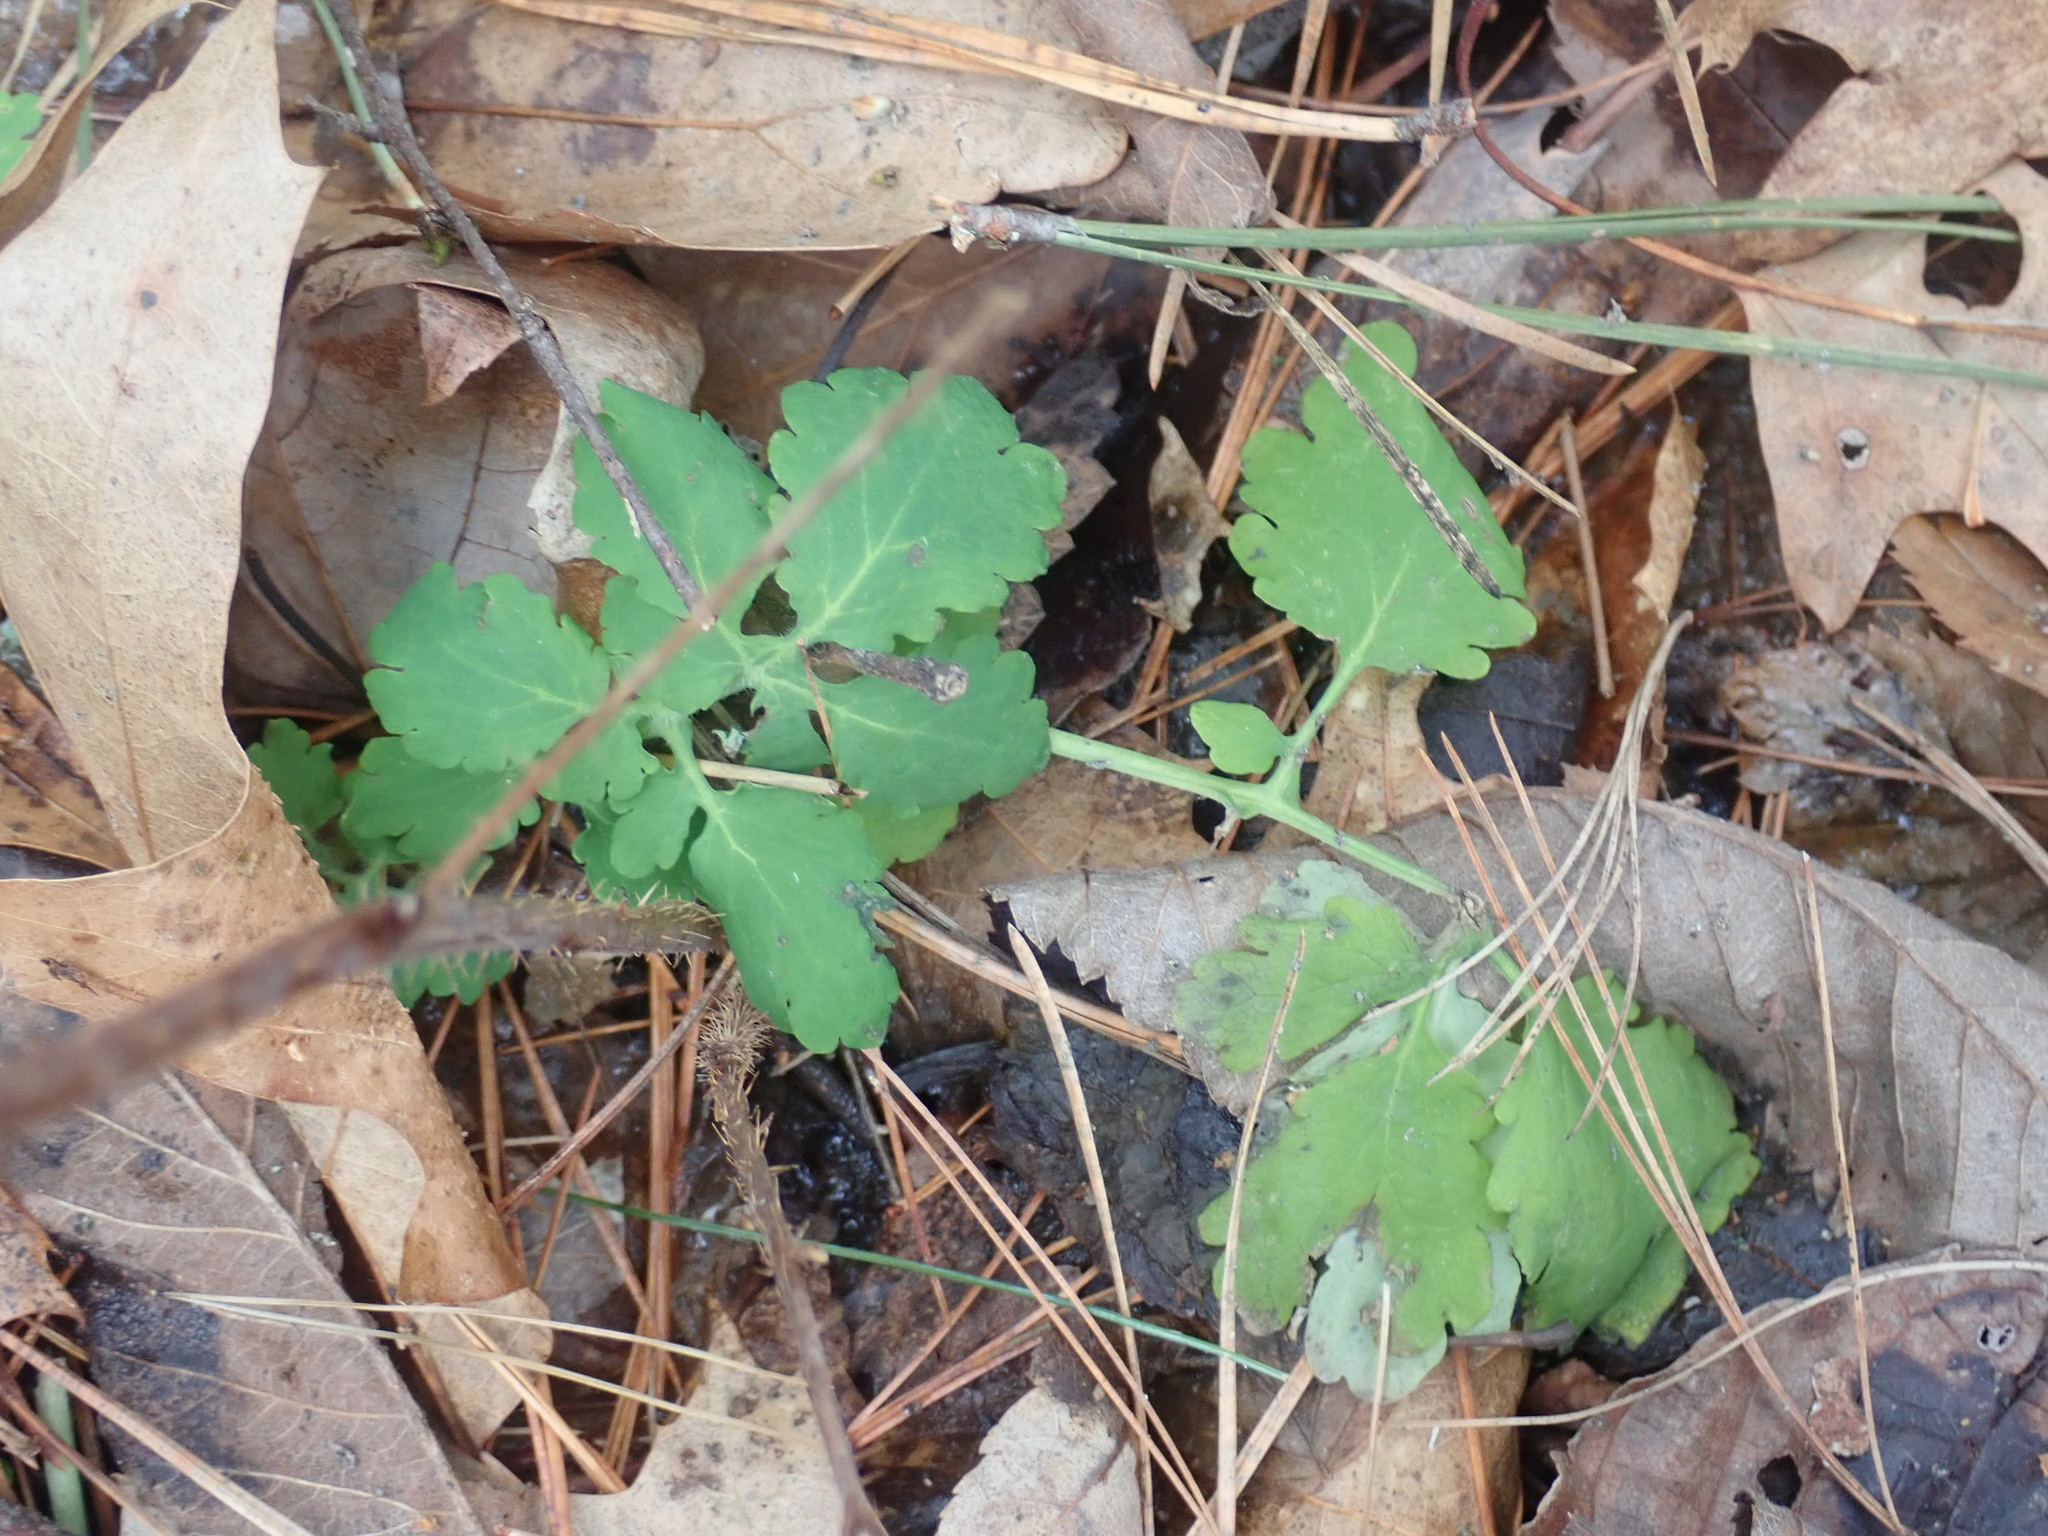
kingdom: Plantae
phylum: Tracheophyta
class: Magnoliopsida
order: Ranunculales
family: Papaveraceae
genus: Chelidonium
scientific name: Chelidonium majus
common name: Greater celandine
